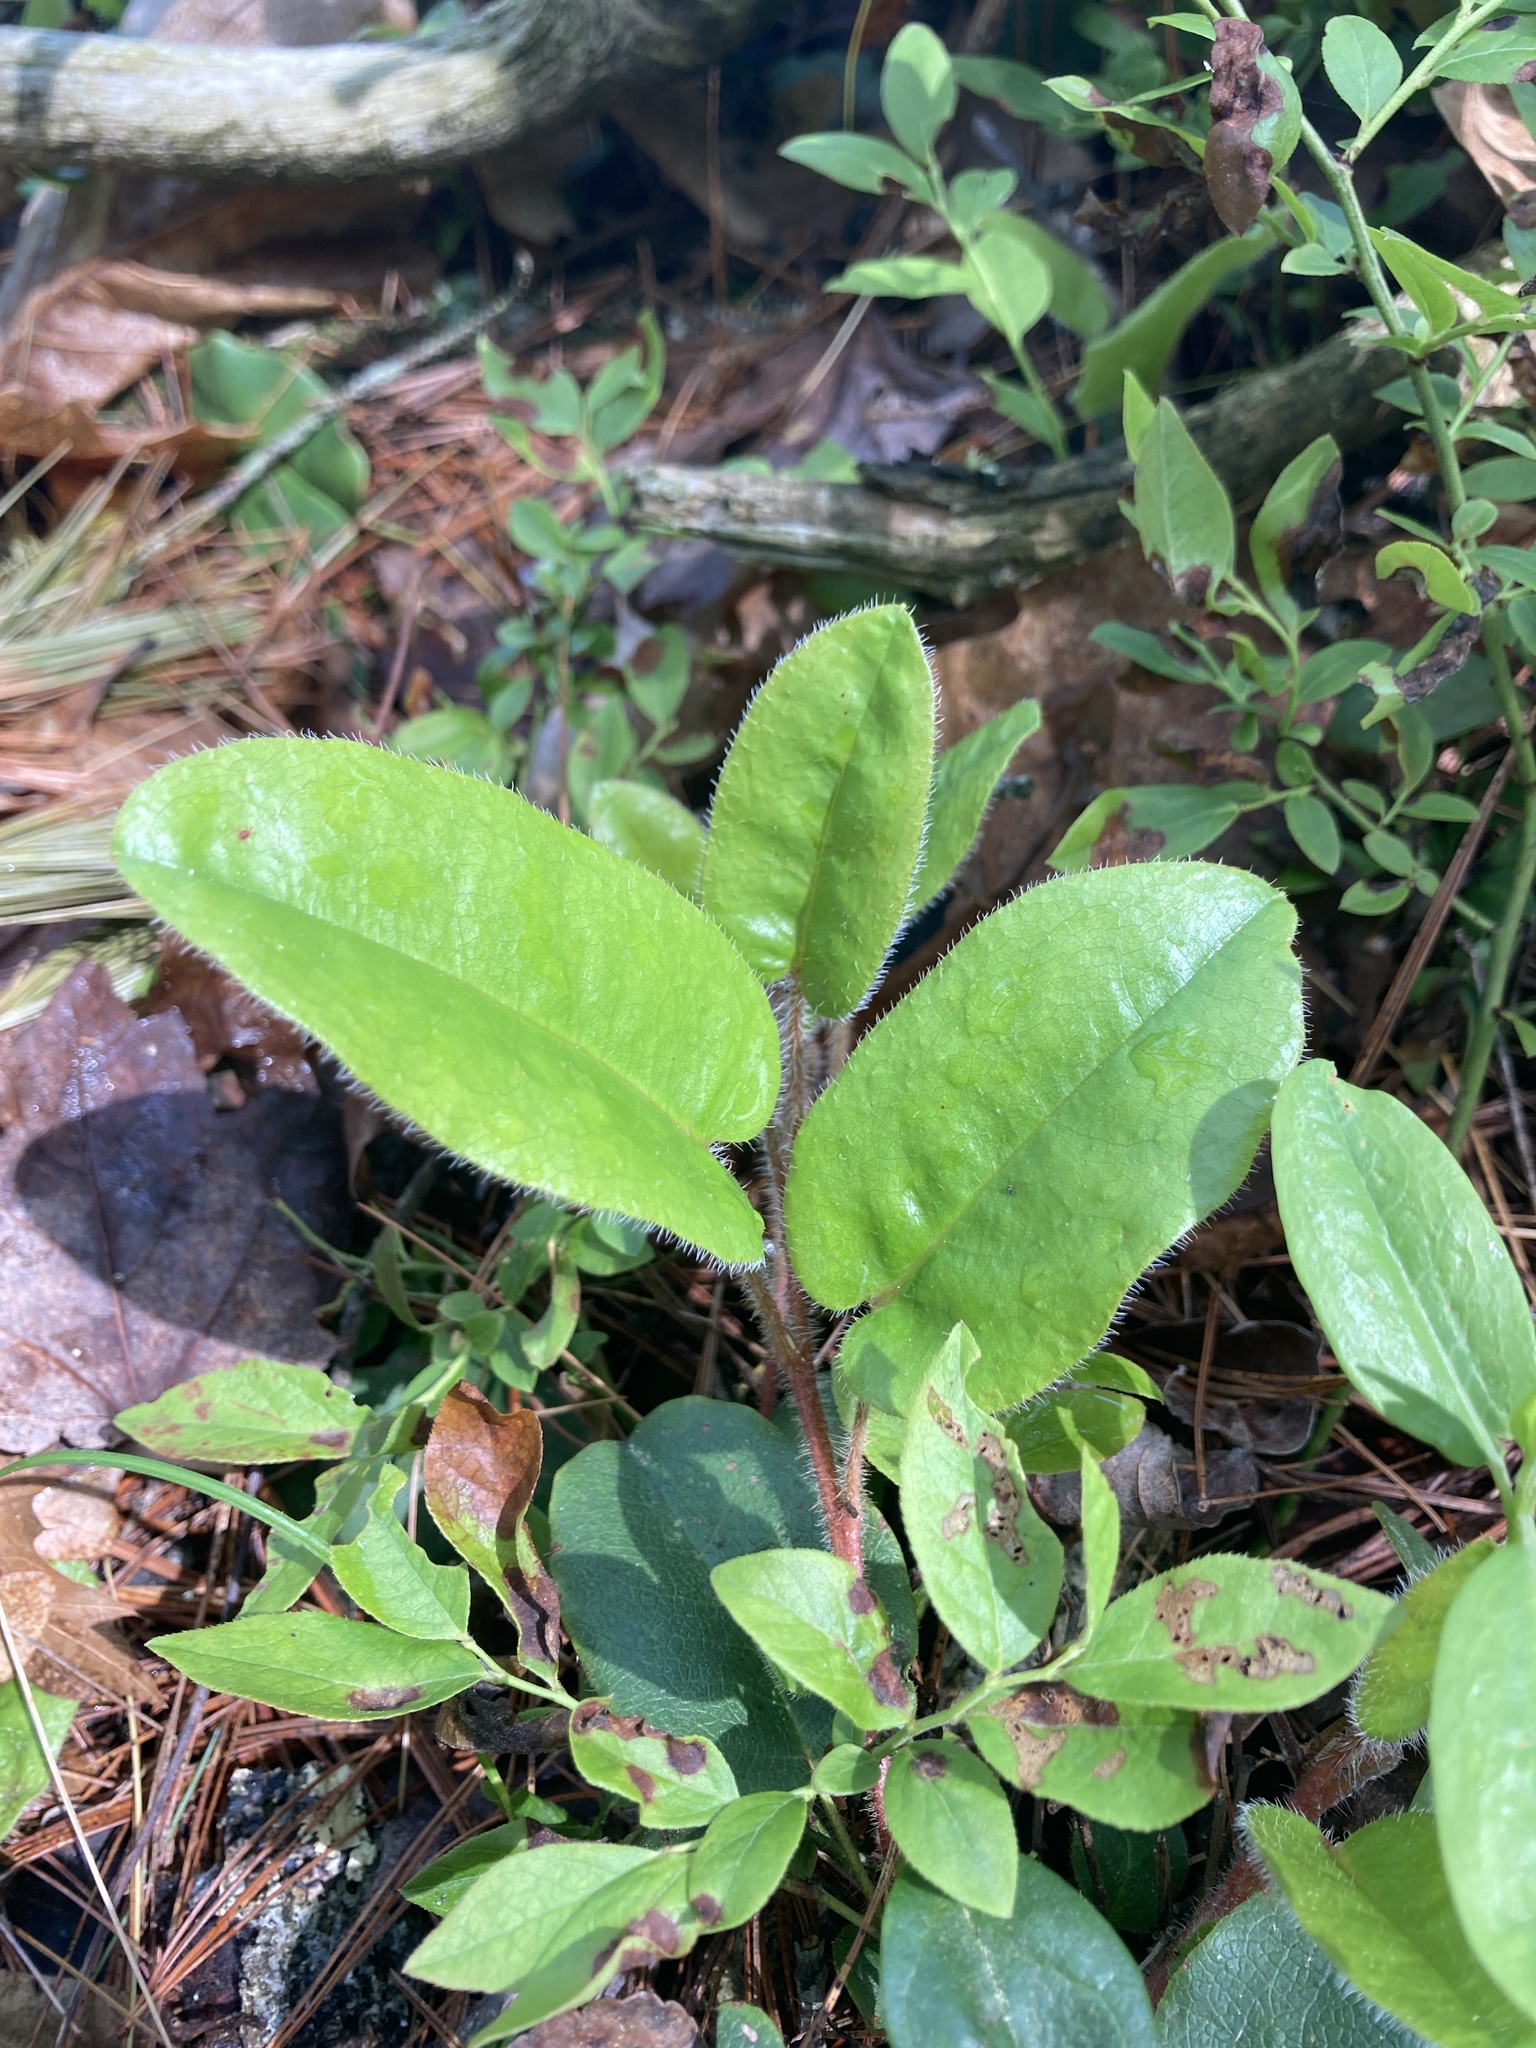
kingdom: Plantae
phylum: Tracheophyta
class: Magnoliopsida
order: Ericales
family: Ericaceae
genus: Epigaea
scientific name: Epigaea repens
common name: Gravelroot
